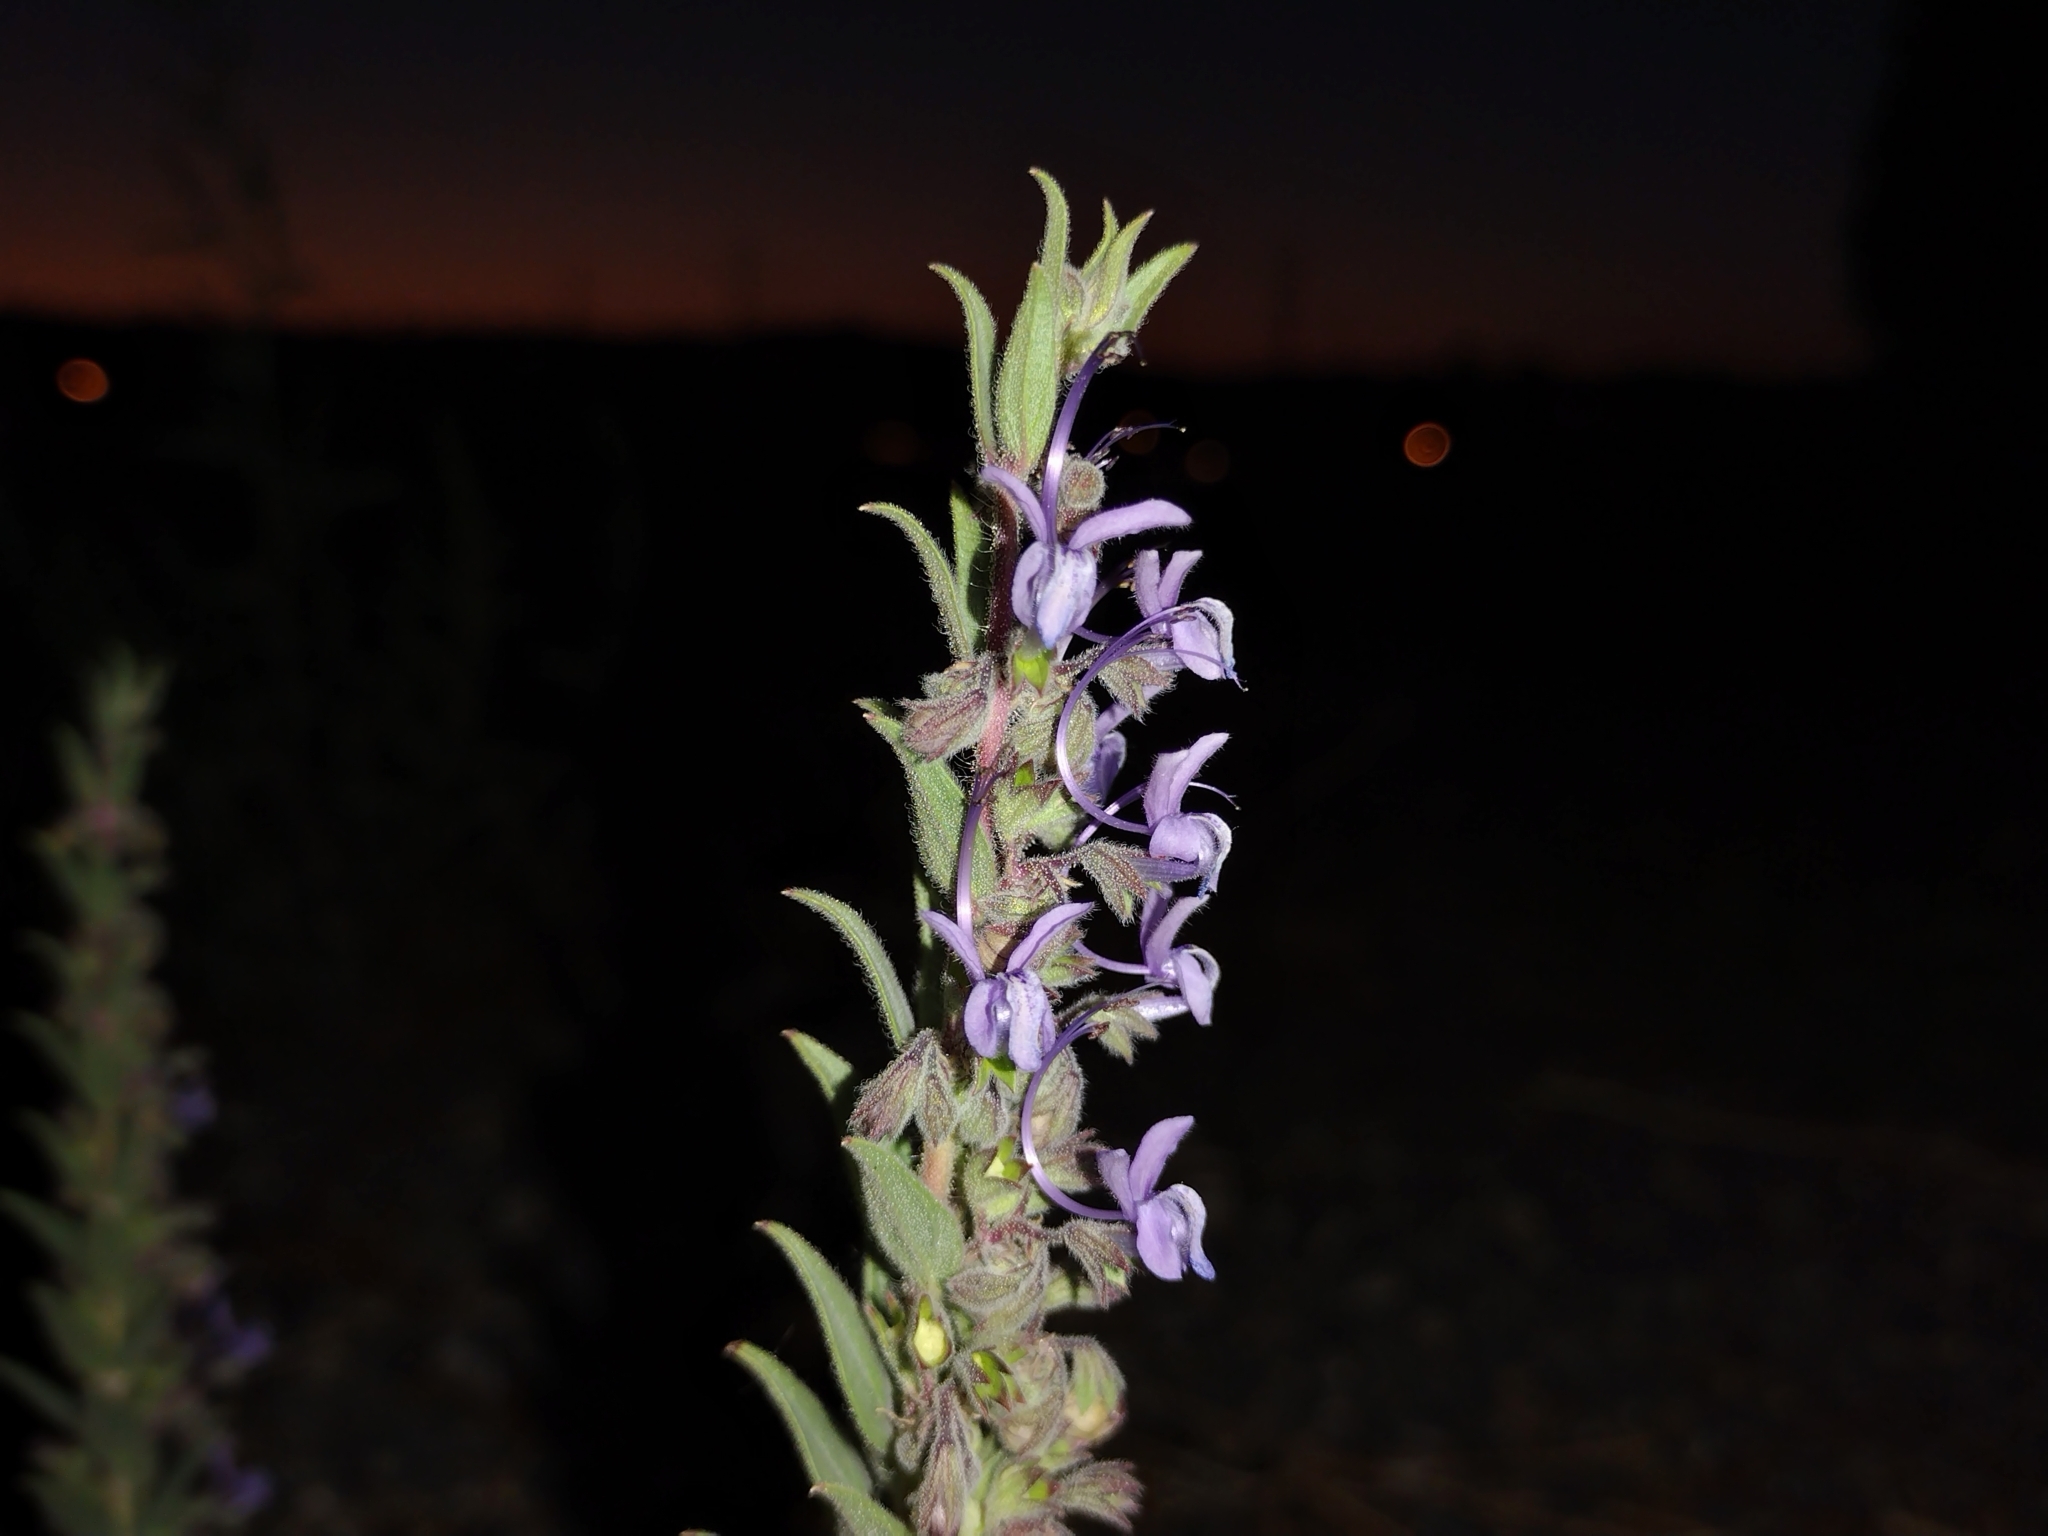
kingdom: Plantae
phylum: Tracheophyta
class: Magnoliopsida
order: Lamiales
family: Lamiaceae
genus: Trichostema
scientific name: Trichostema lanceolatum
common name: Vinegar-weed
